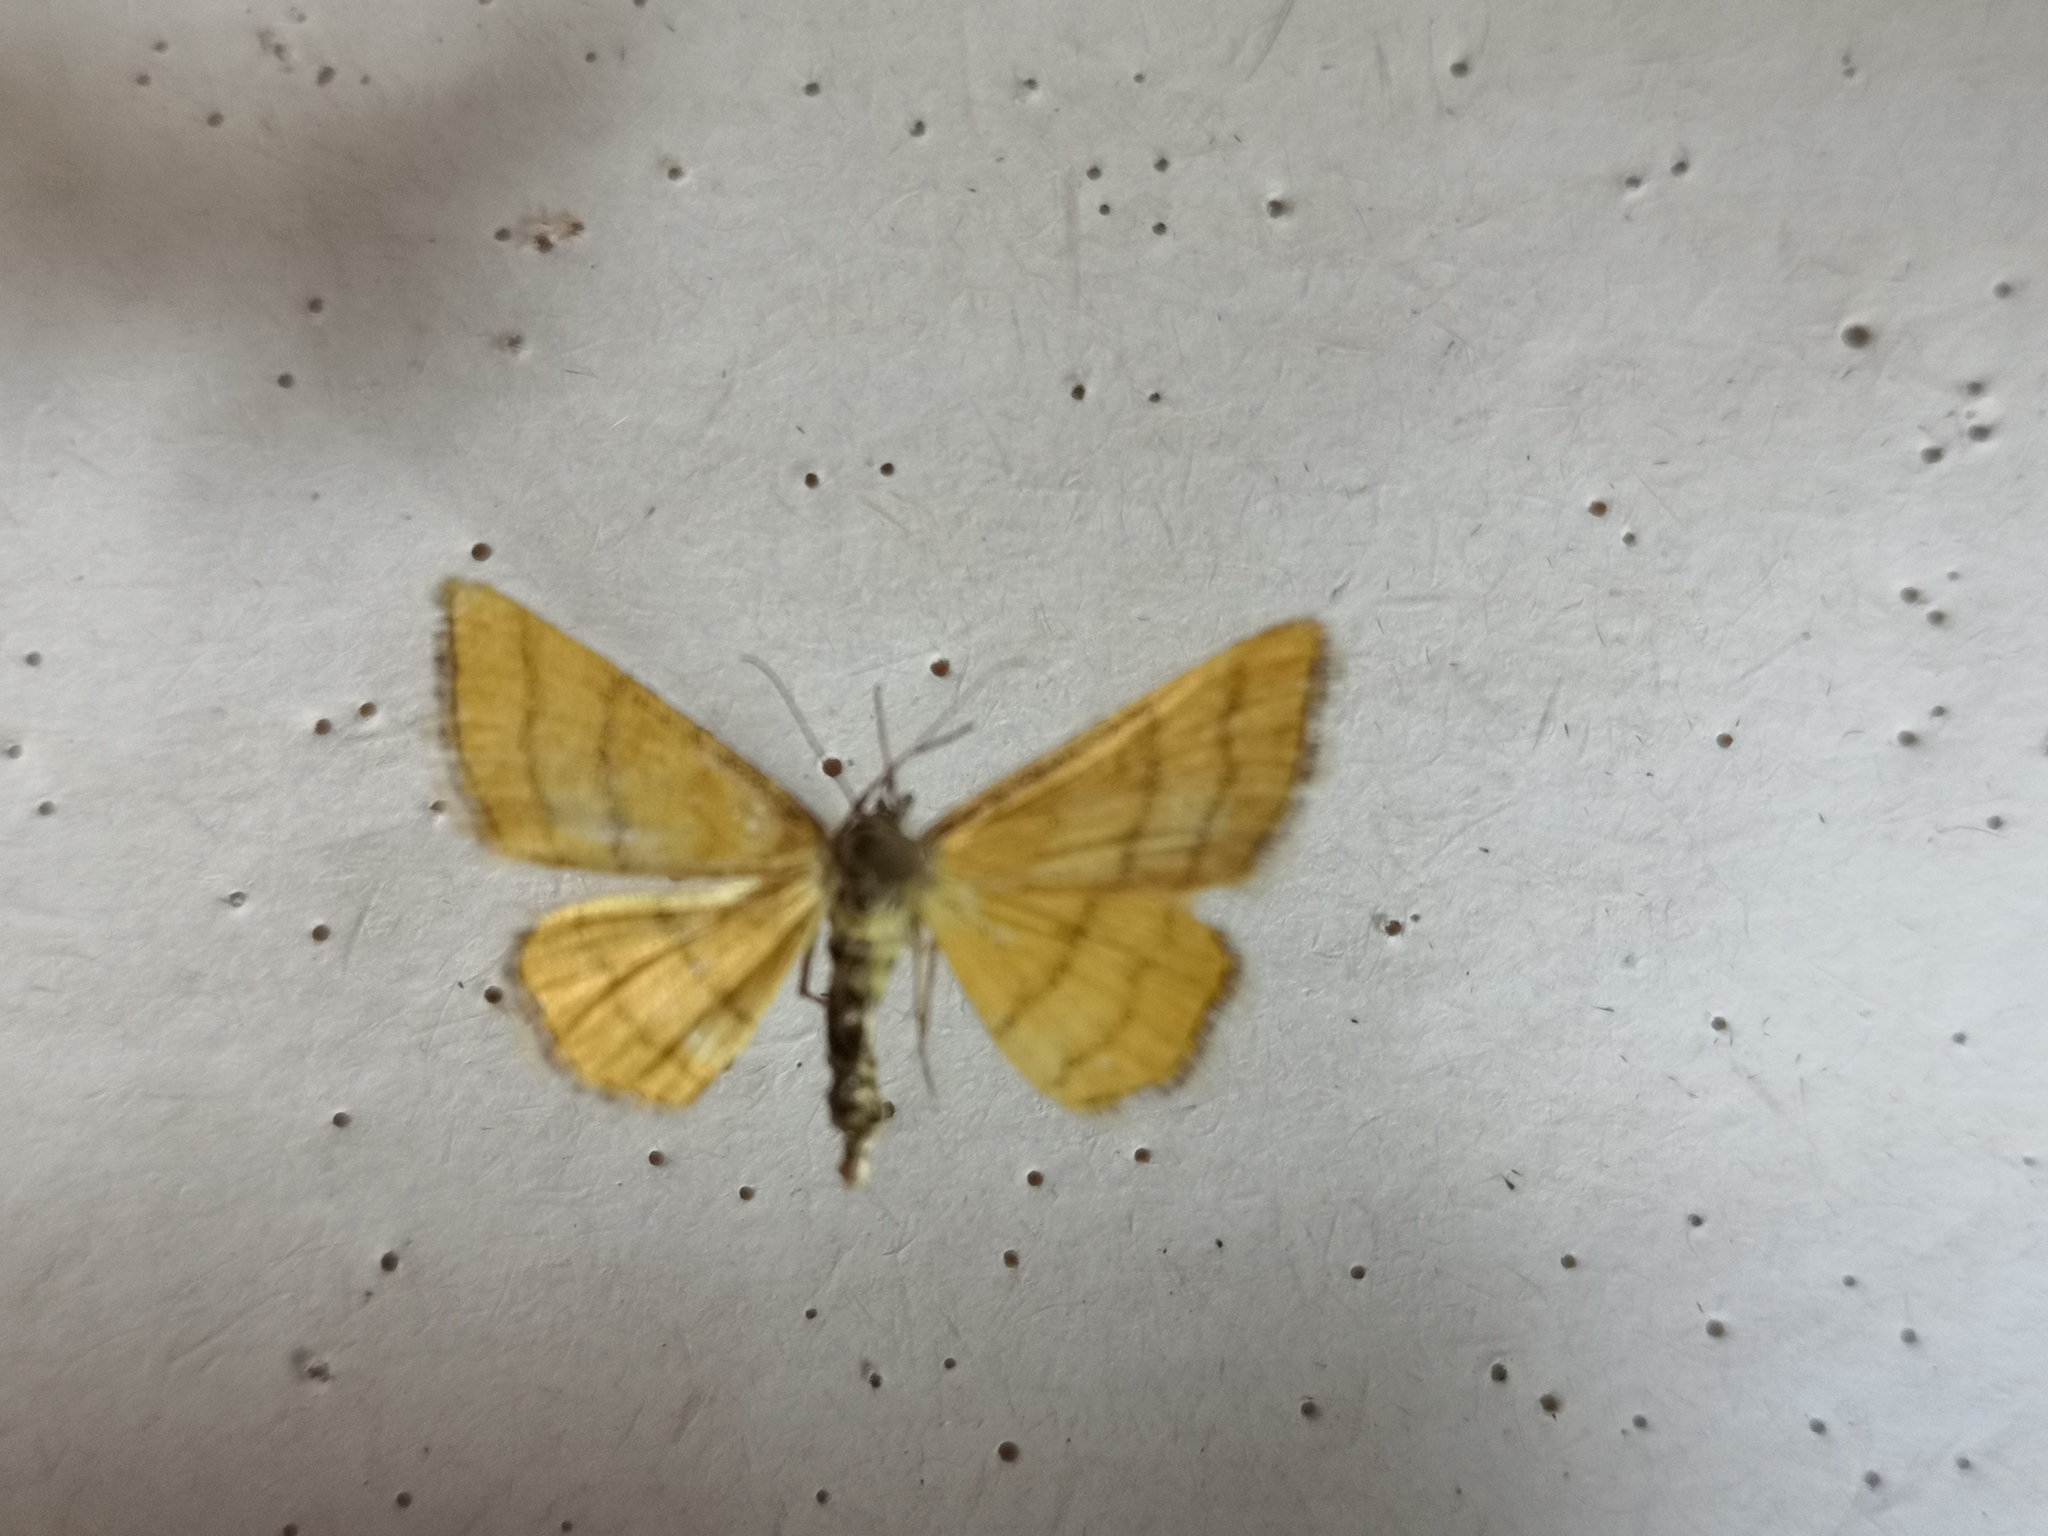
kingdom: Animalia
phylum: Arthropoda
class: Insecta
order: Lepidoptera
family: Geometridae
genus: Idaea
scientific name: Idaea aureolaria
